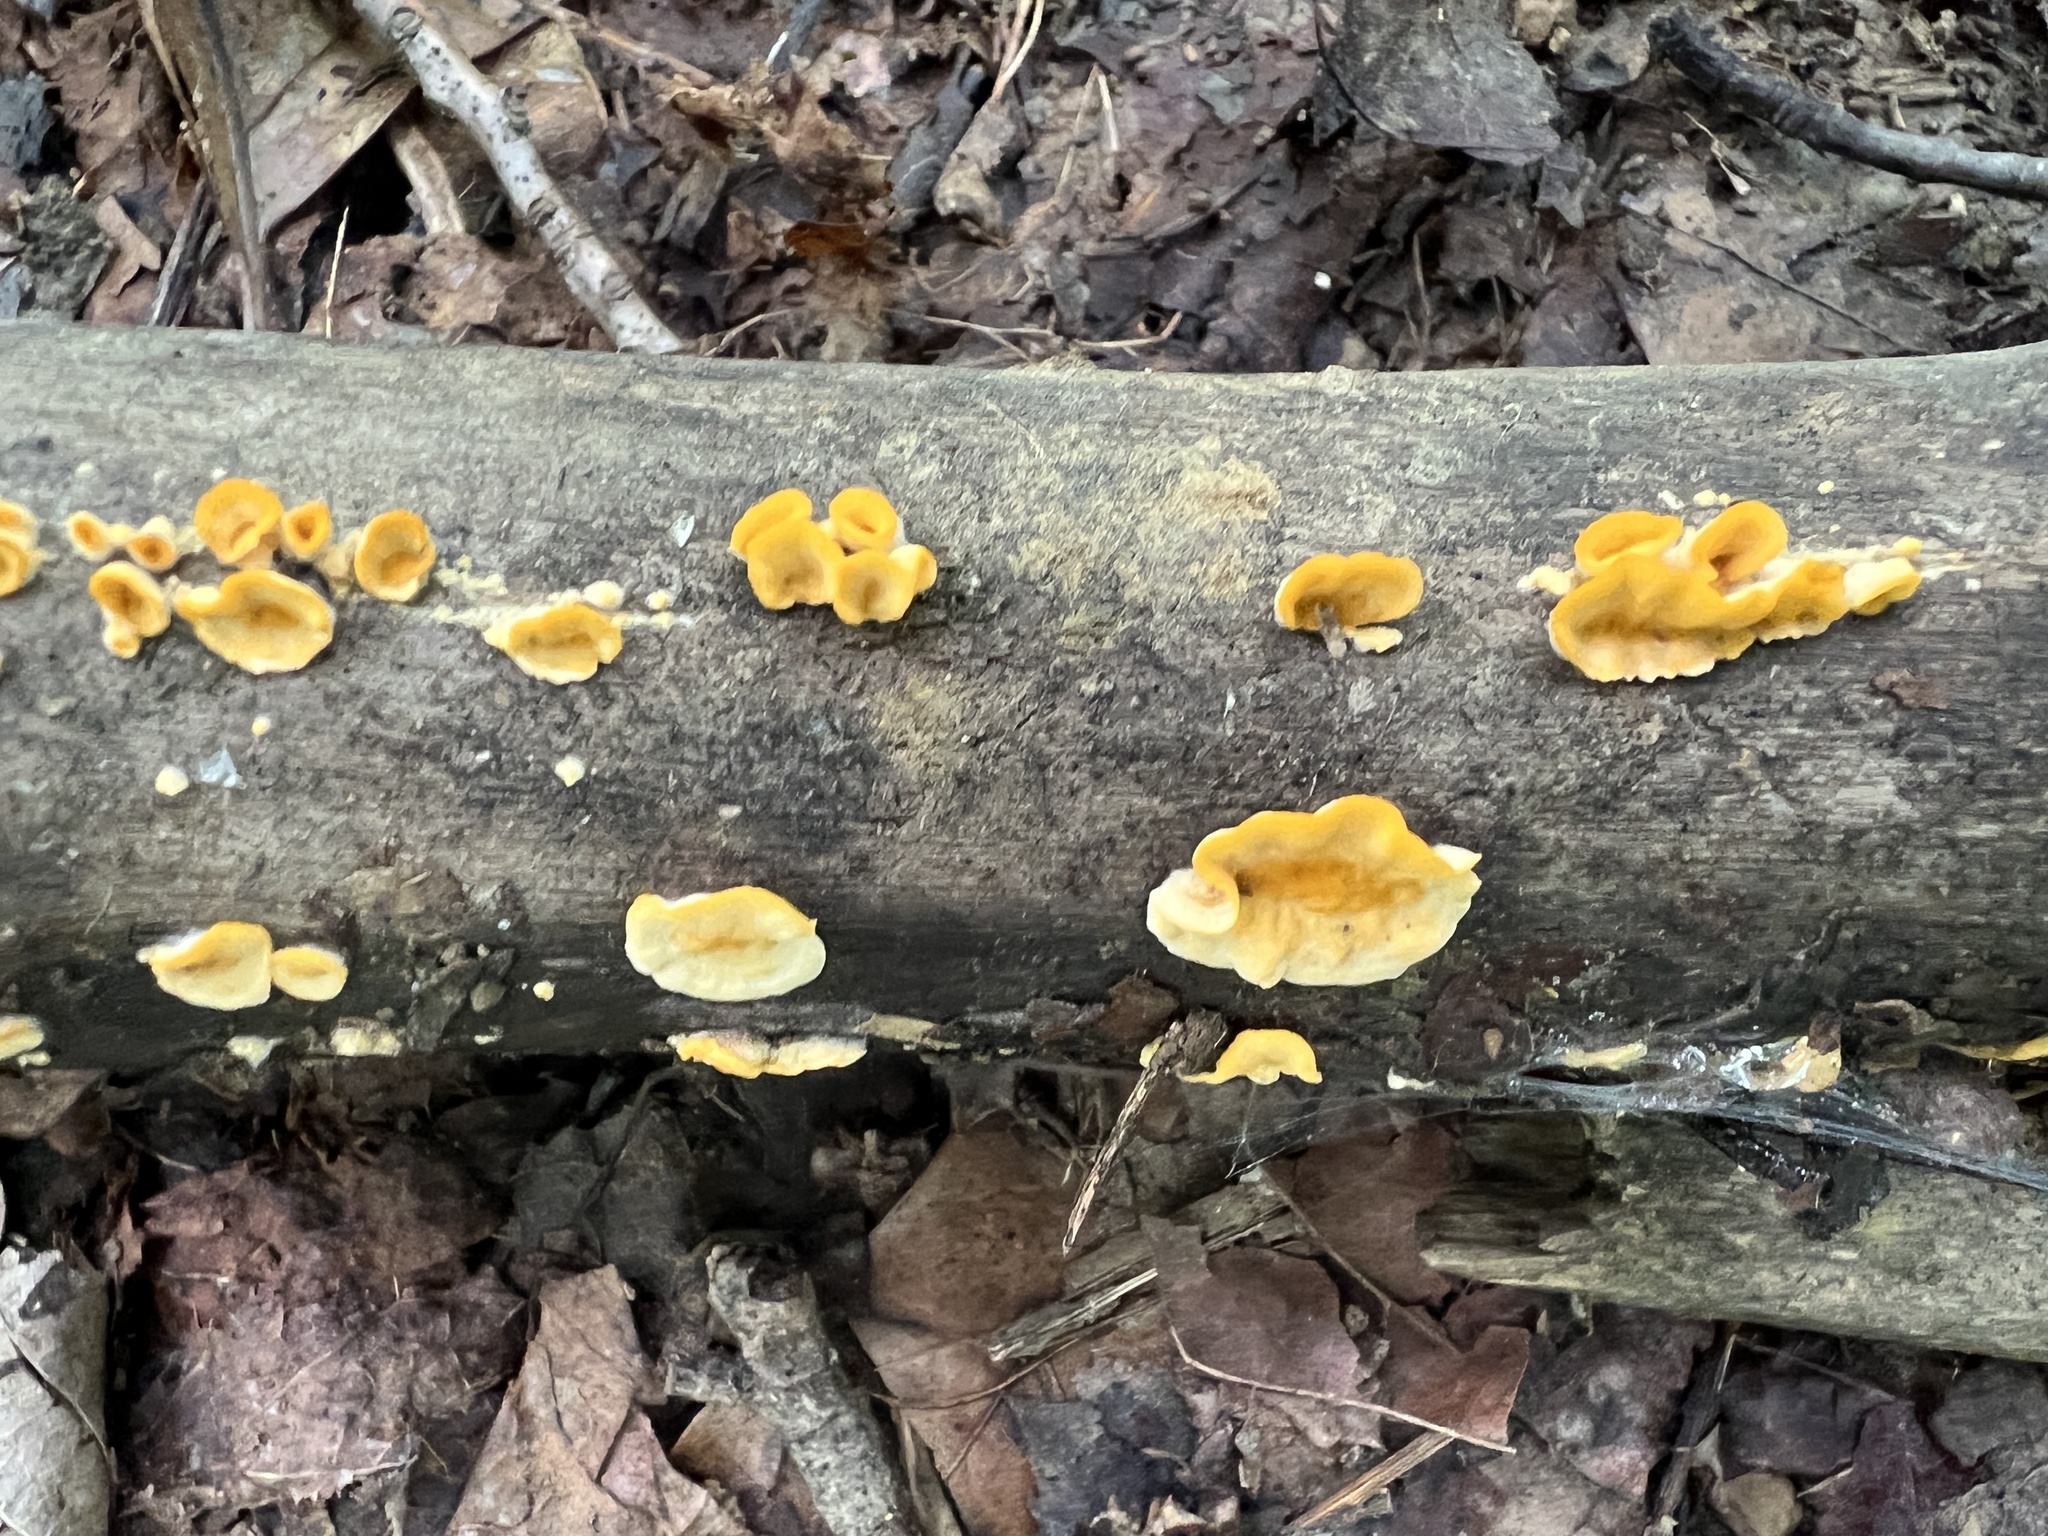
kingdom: Fungi
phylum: Basidiomycota
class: Agaricomycetes
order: Russulales
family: Stereaceae
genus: Stereum
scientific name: Stereum complicatum
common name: Crowded parchment
